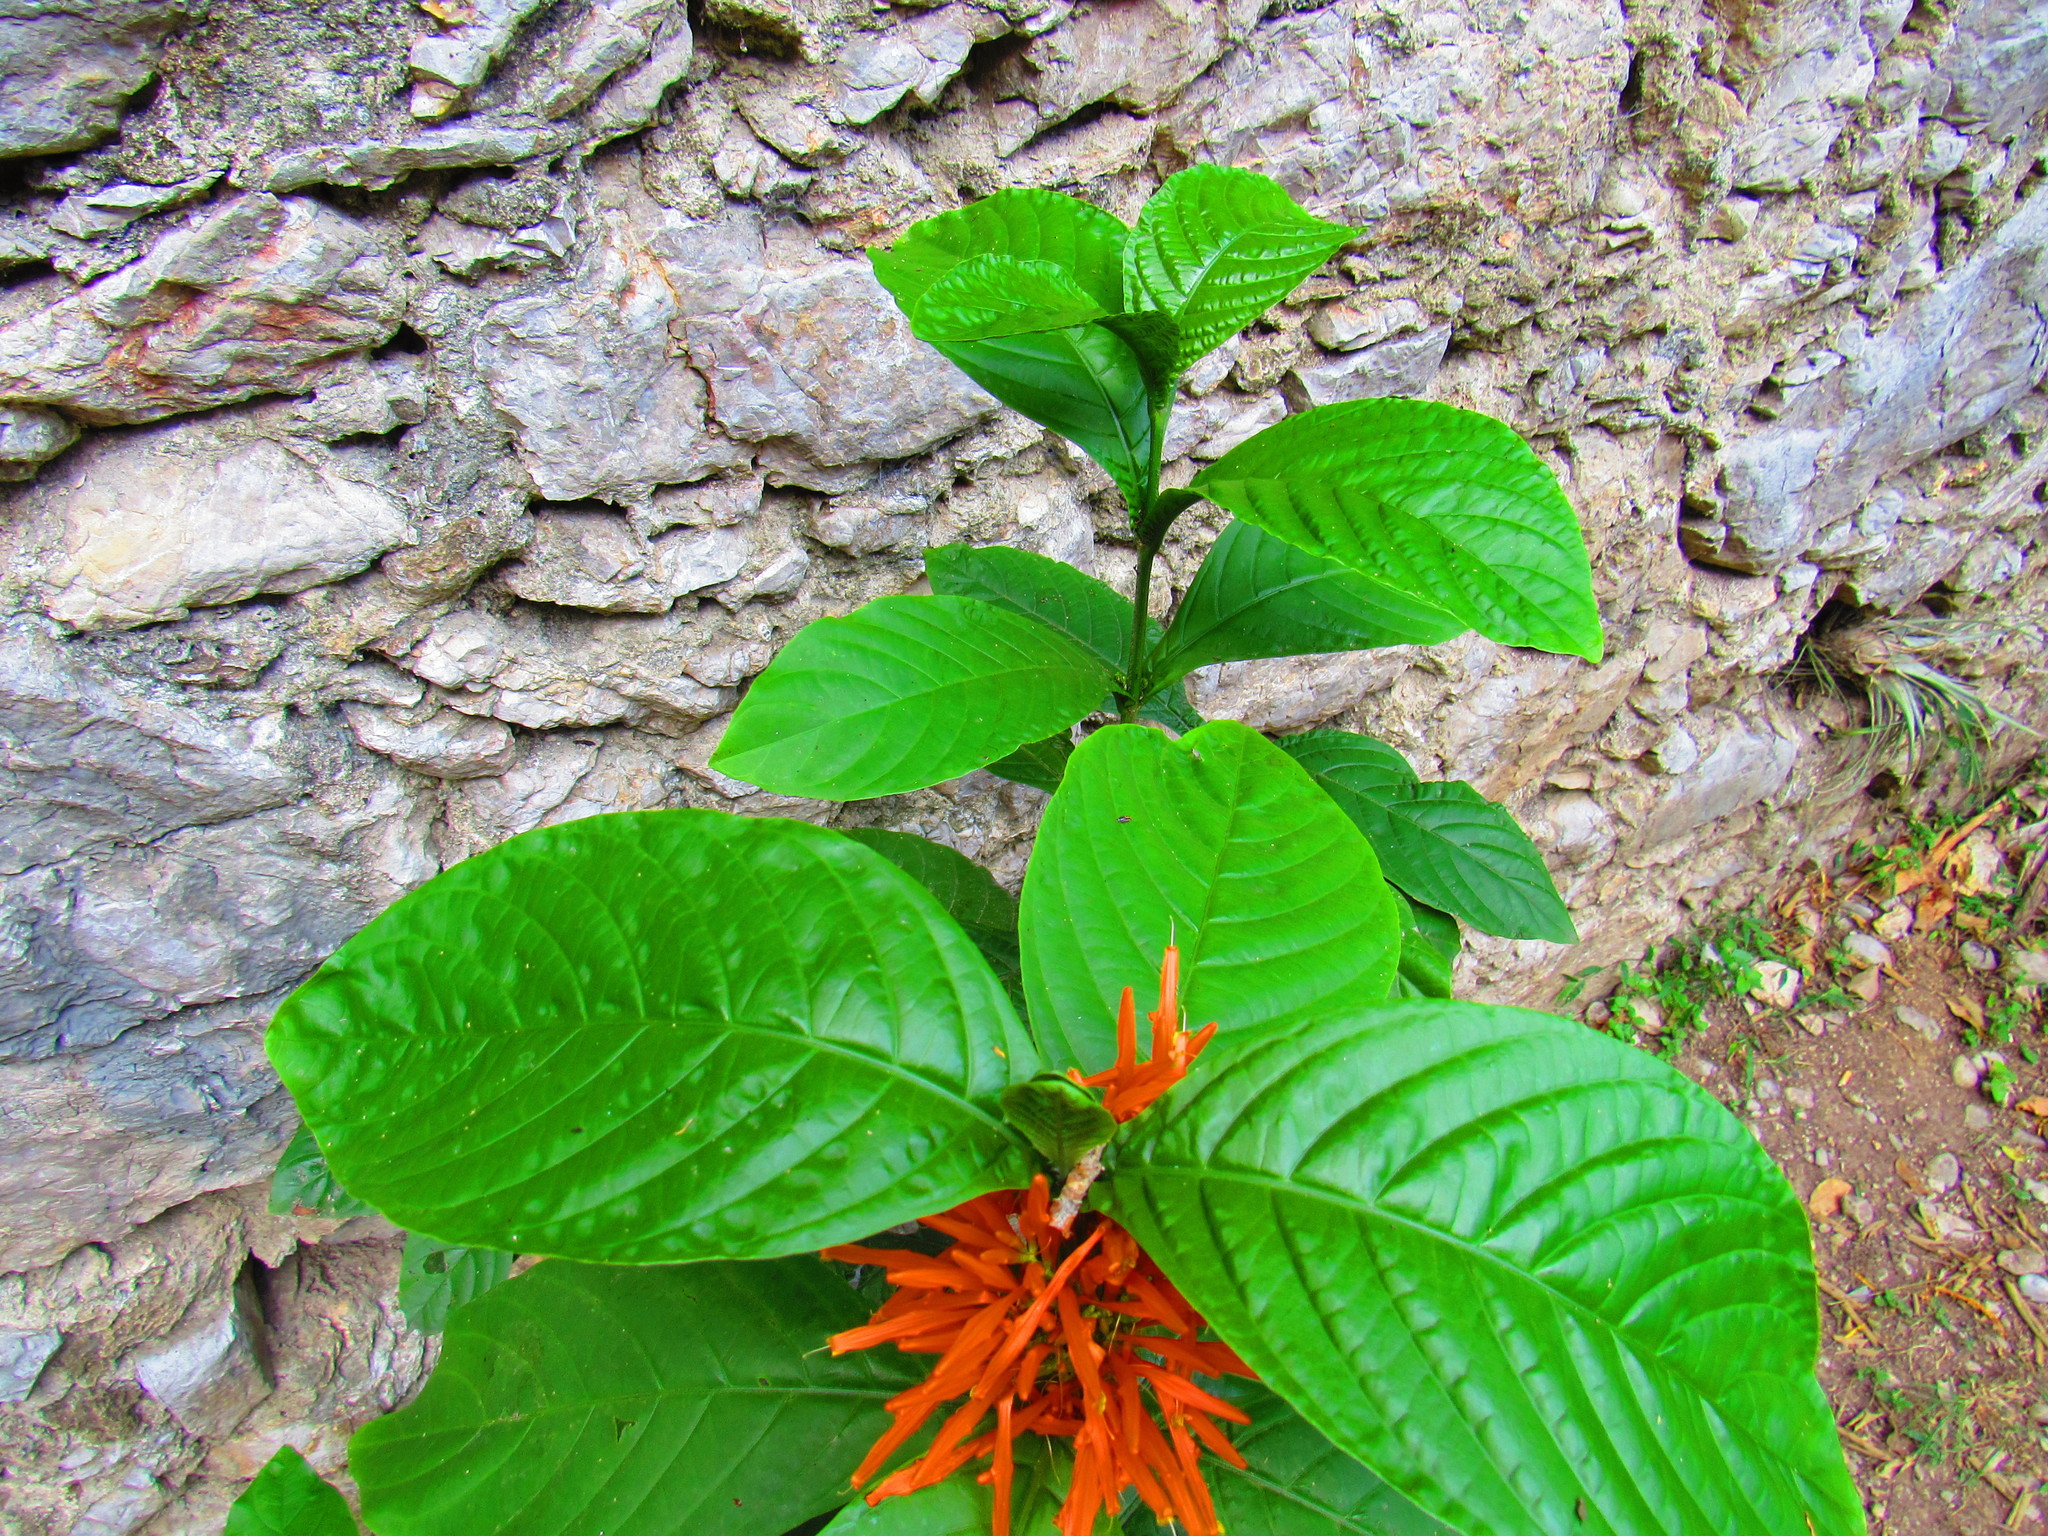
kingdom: Plantae
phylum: Tracheophyta
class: Magnoliopsida
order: Lamiales
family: Acanthaceae
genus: Justicia
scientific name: Justicia amplifolia
